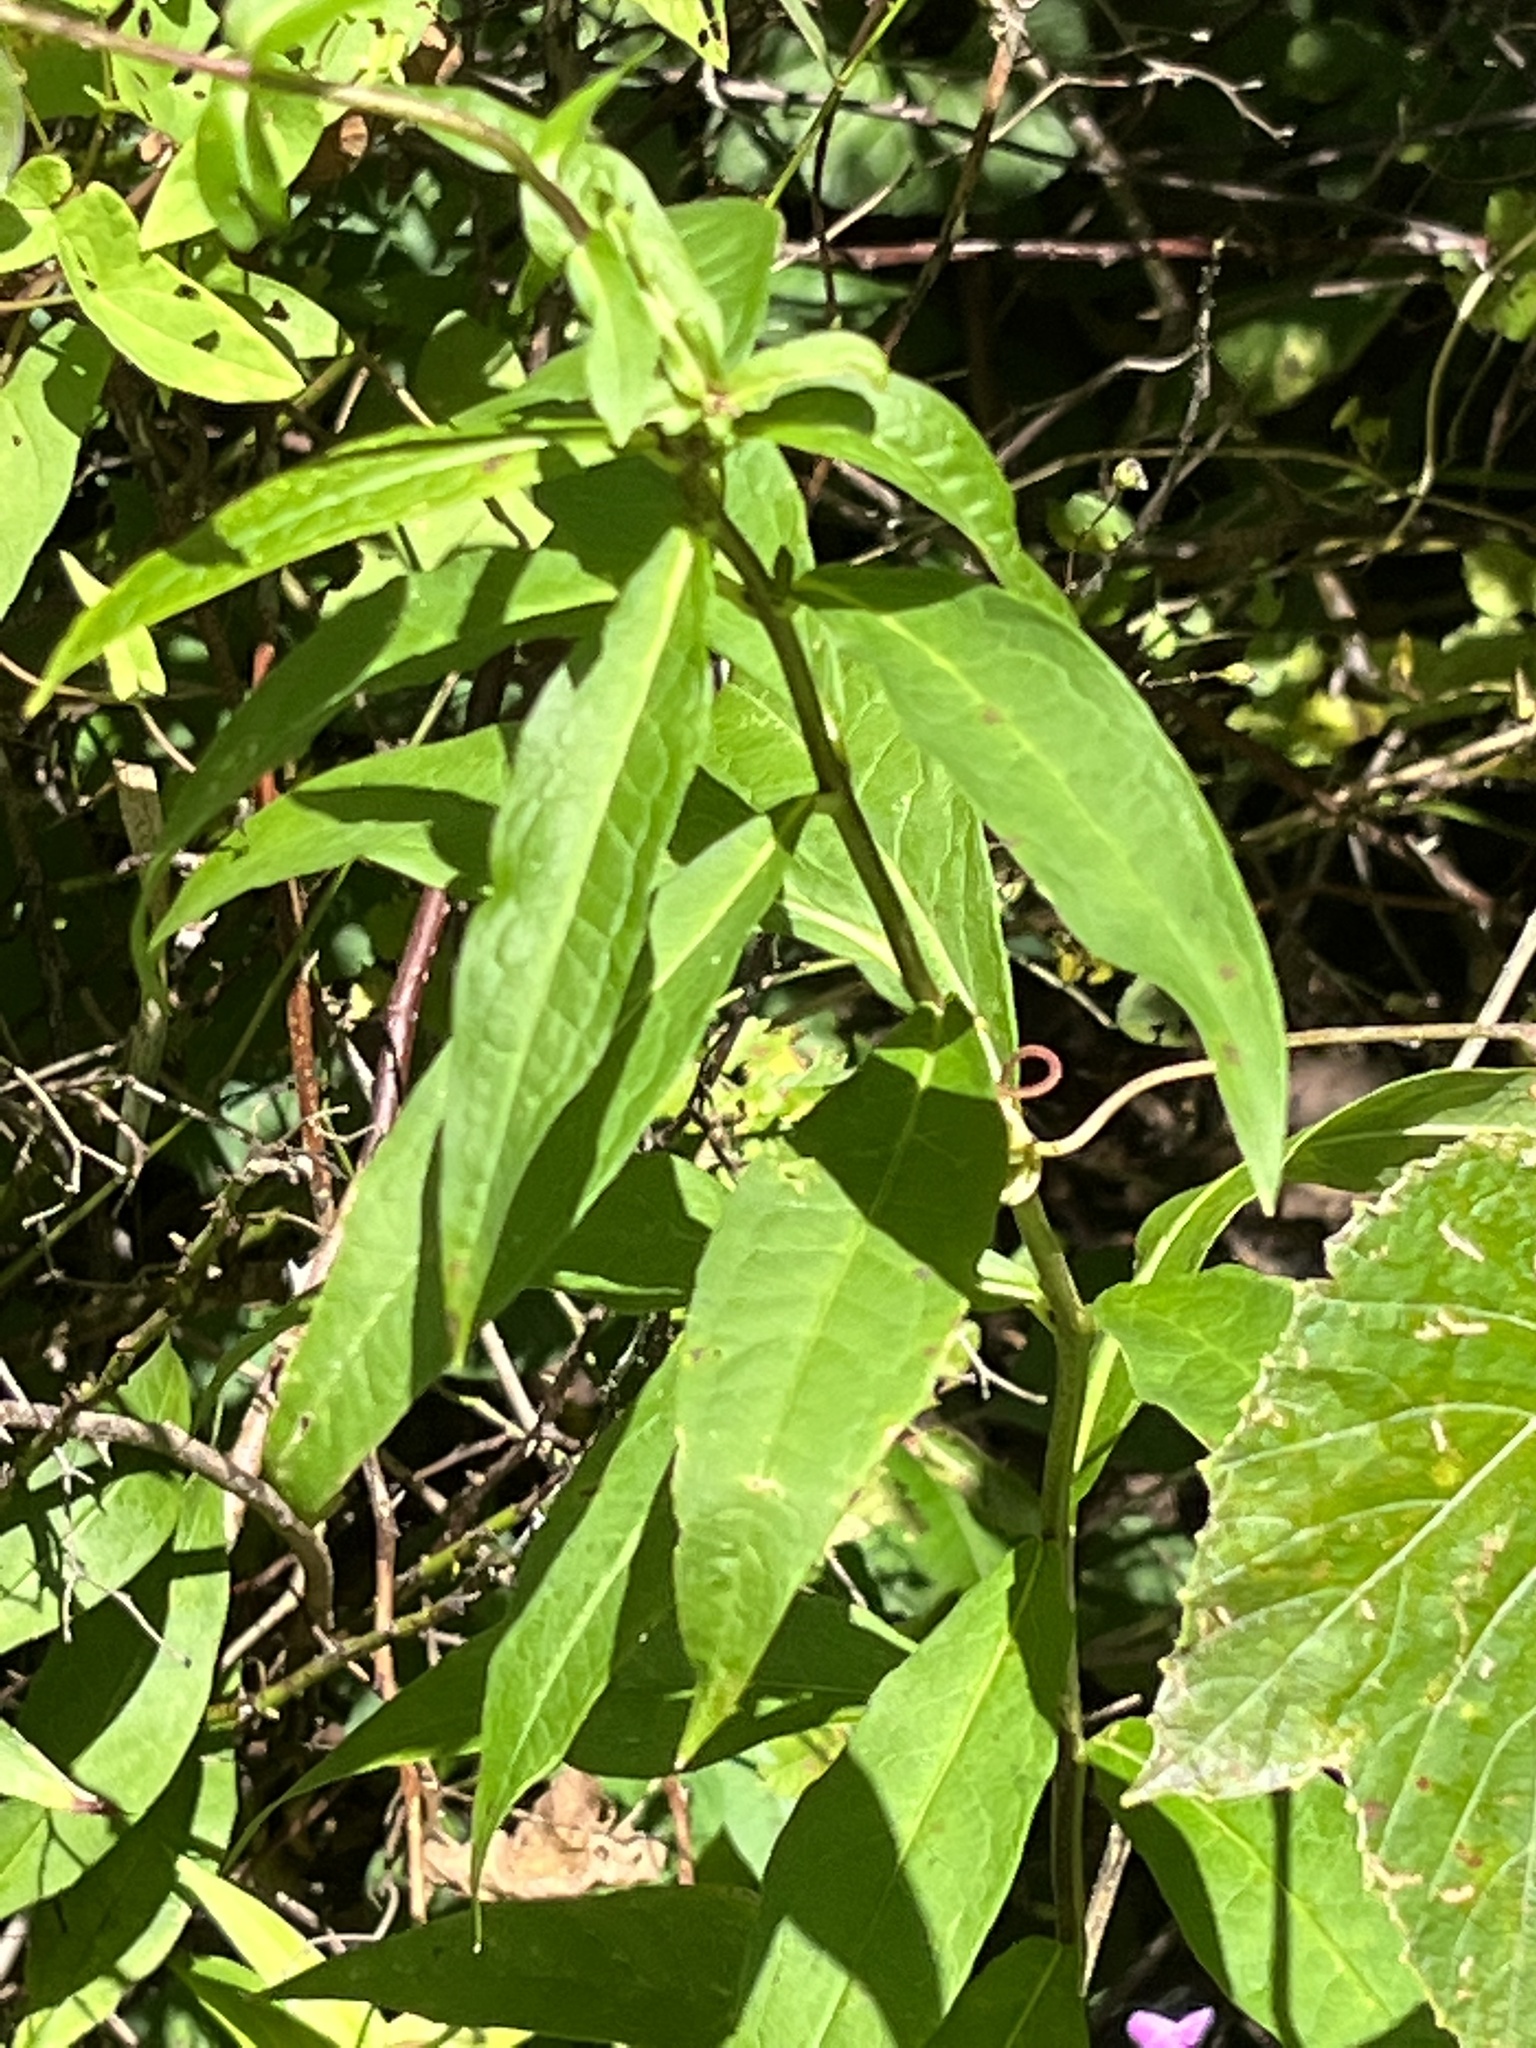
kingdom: Plantae
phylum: Tracheophyta
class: Magnoliopsida
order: Ericales
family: Polemoniaceae
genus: Phlox
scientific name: Phlox paniculata
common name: Fall phlox
